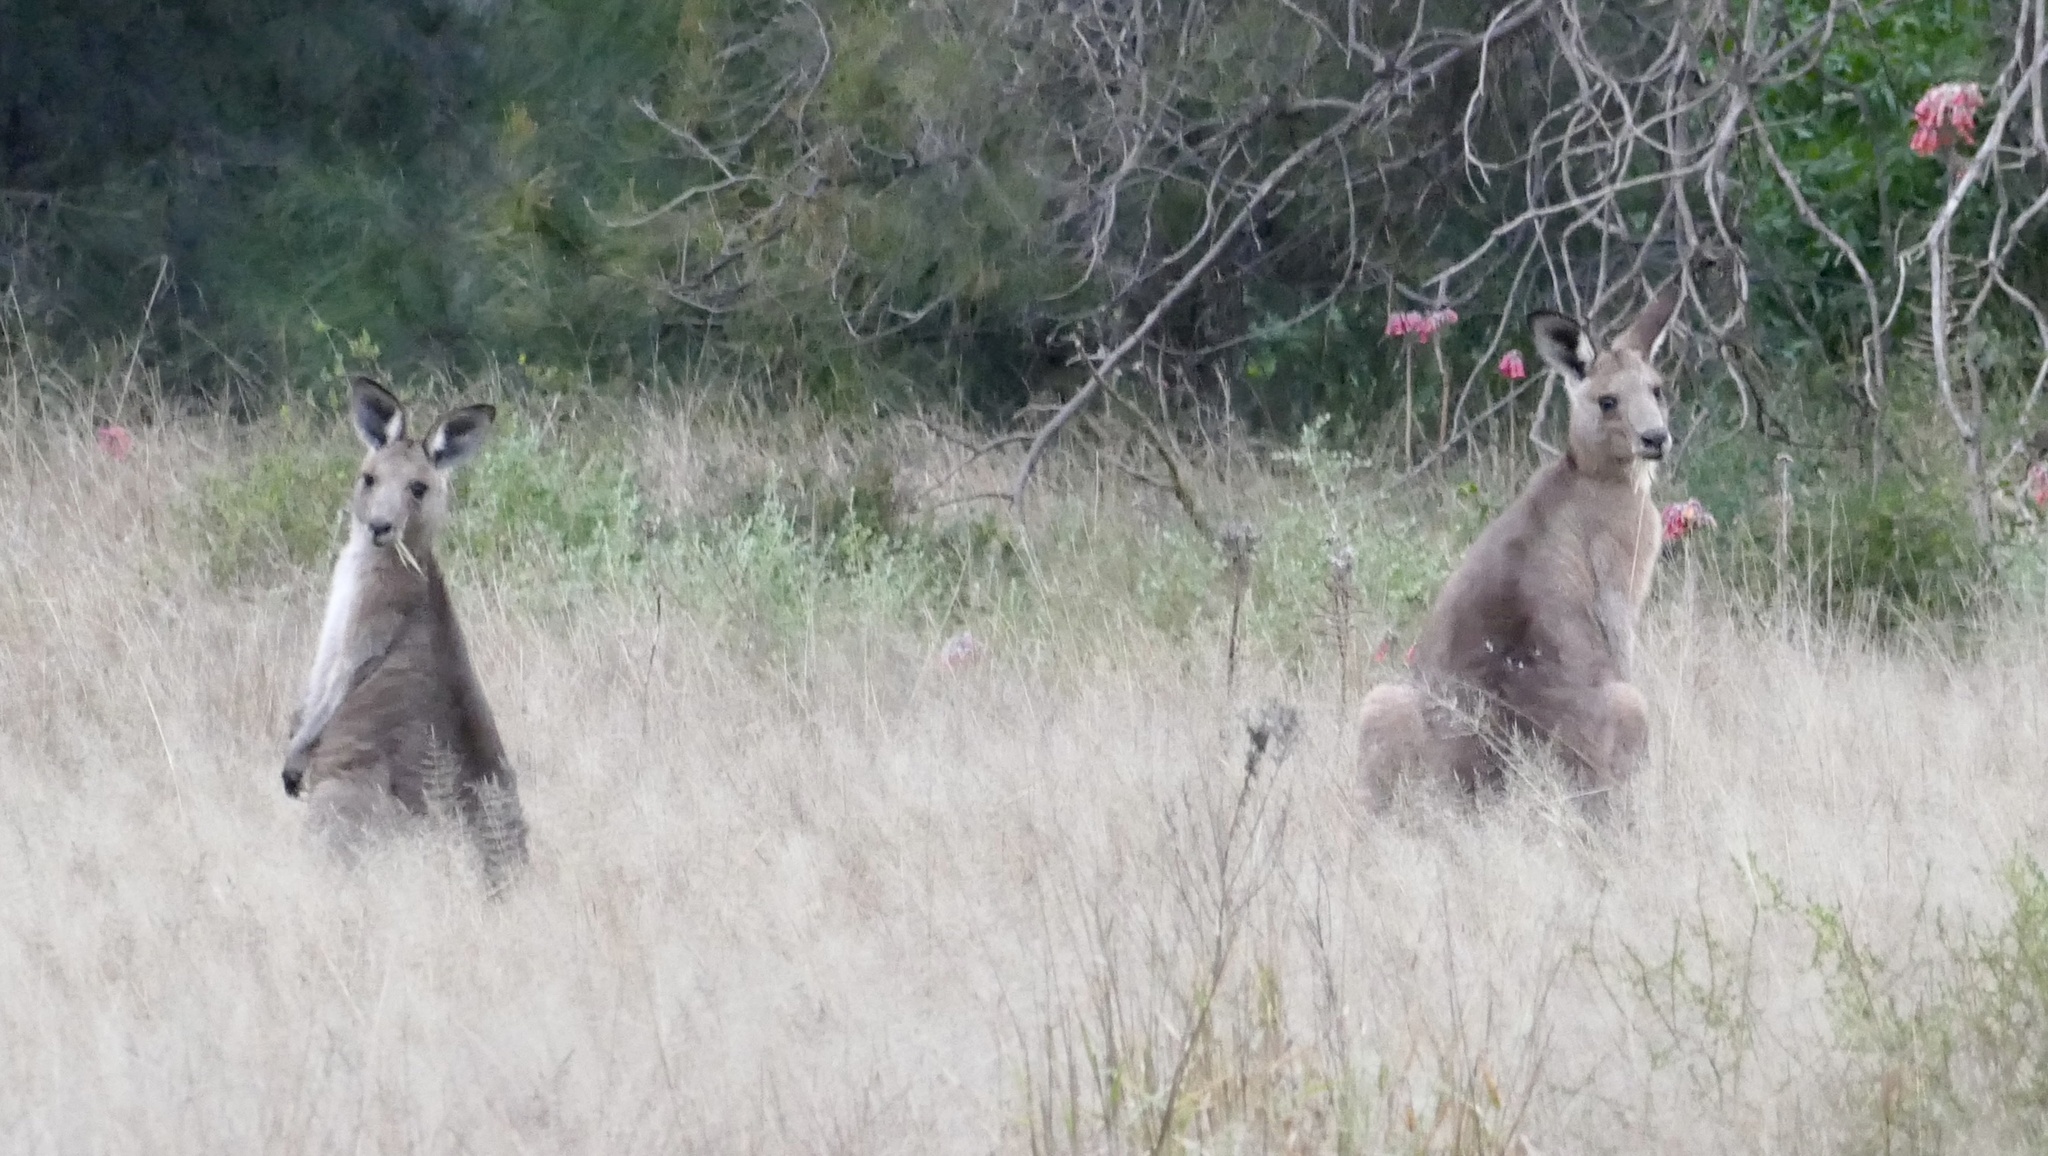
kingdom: Animalia
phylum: Chordata
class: Mammalia
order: Diprotodontia
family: Macropodidae
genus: Macropus
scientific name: Macropus giganteus
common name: Eastern grey kangaroo
